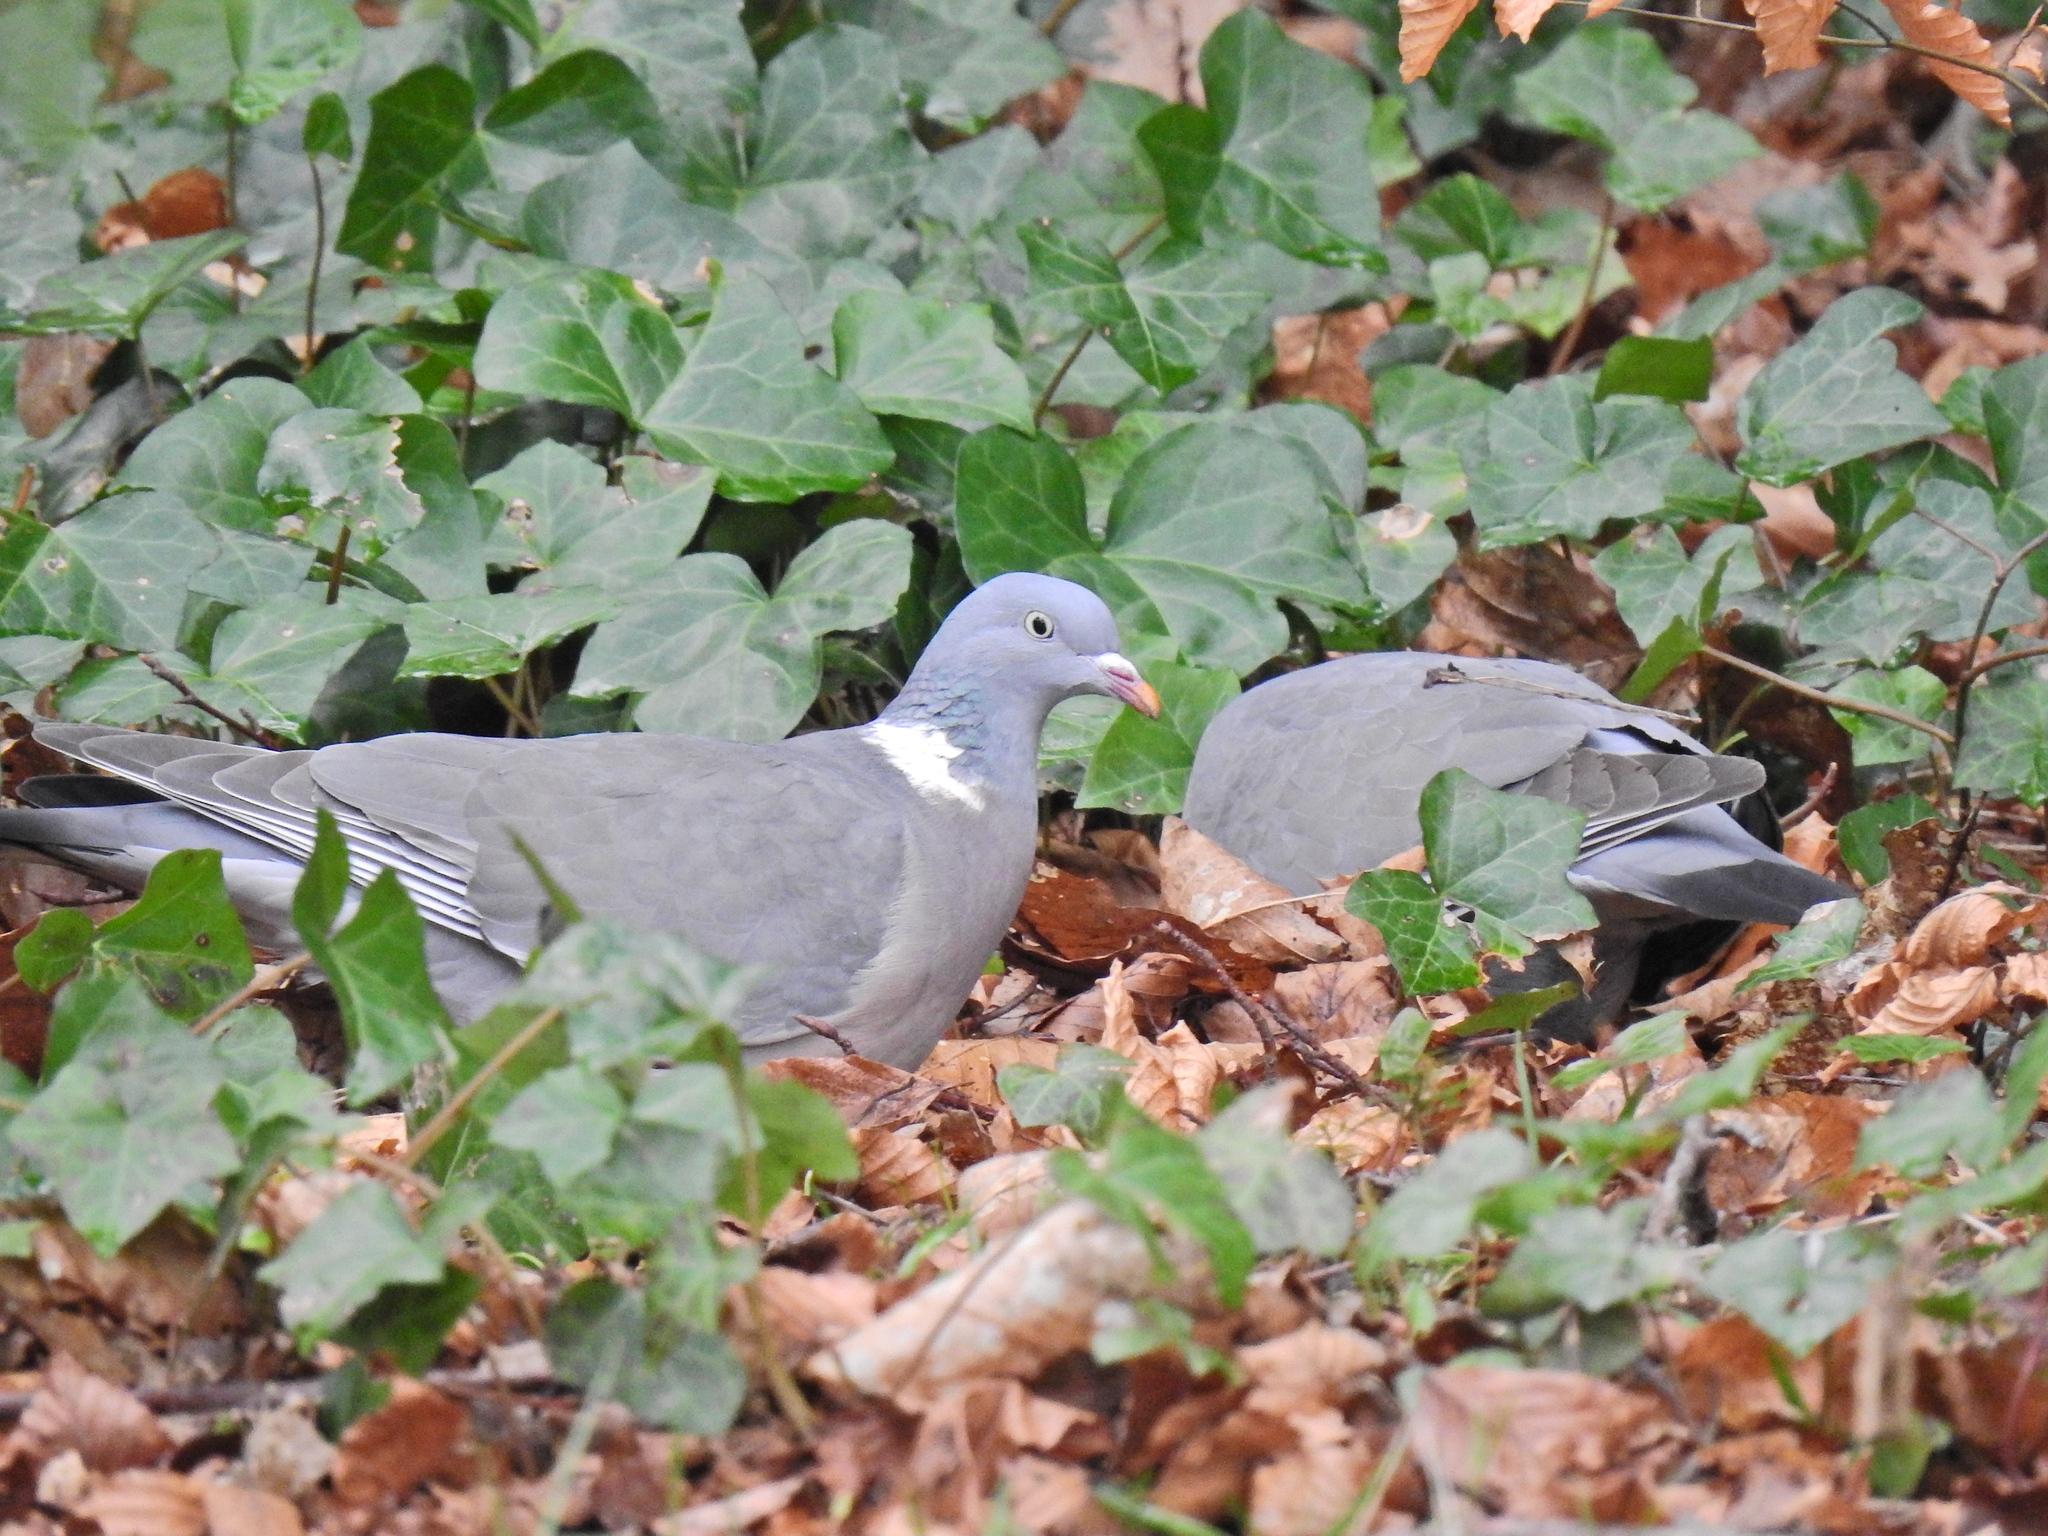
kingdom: Animalia
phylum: Chordata
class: Aves
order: Columbiformes
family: Columbidae
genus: Columba
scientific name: Columba palumbus
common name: Common wood pigeon
